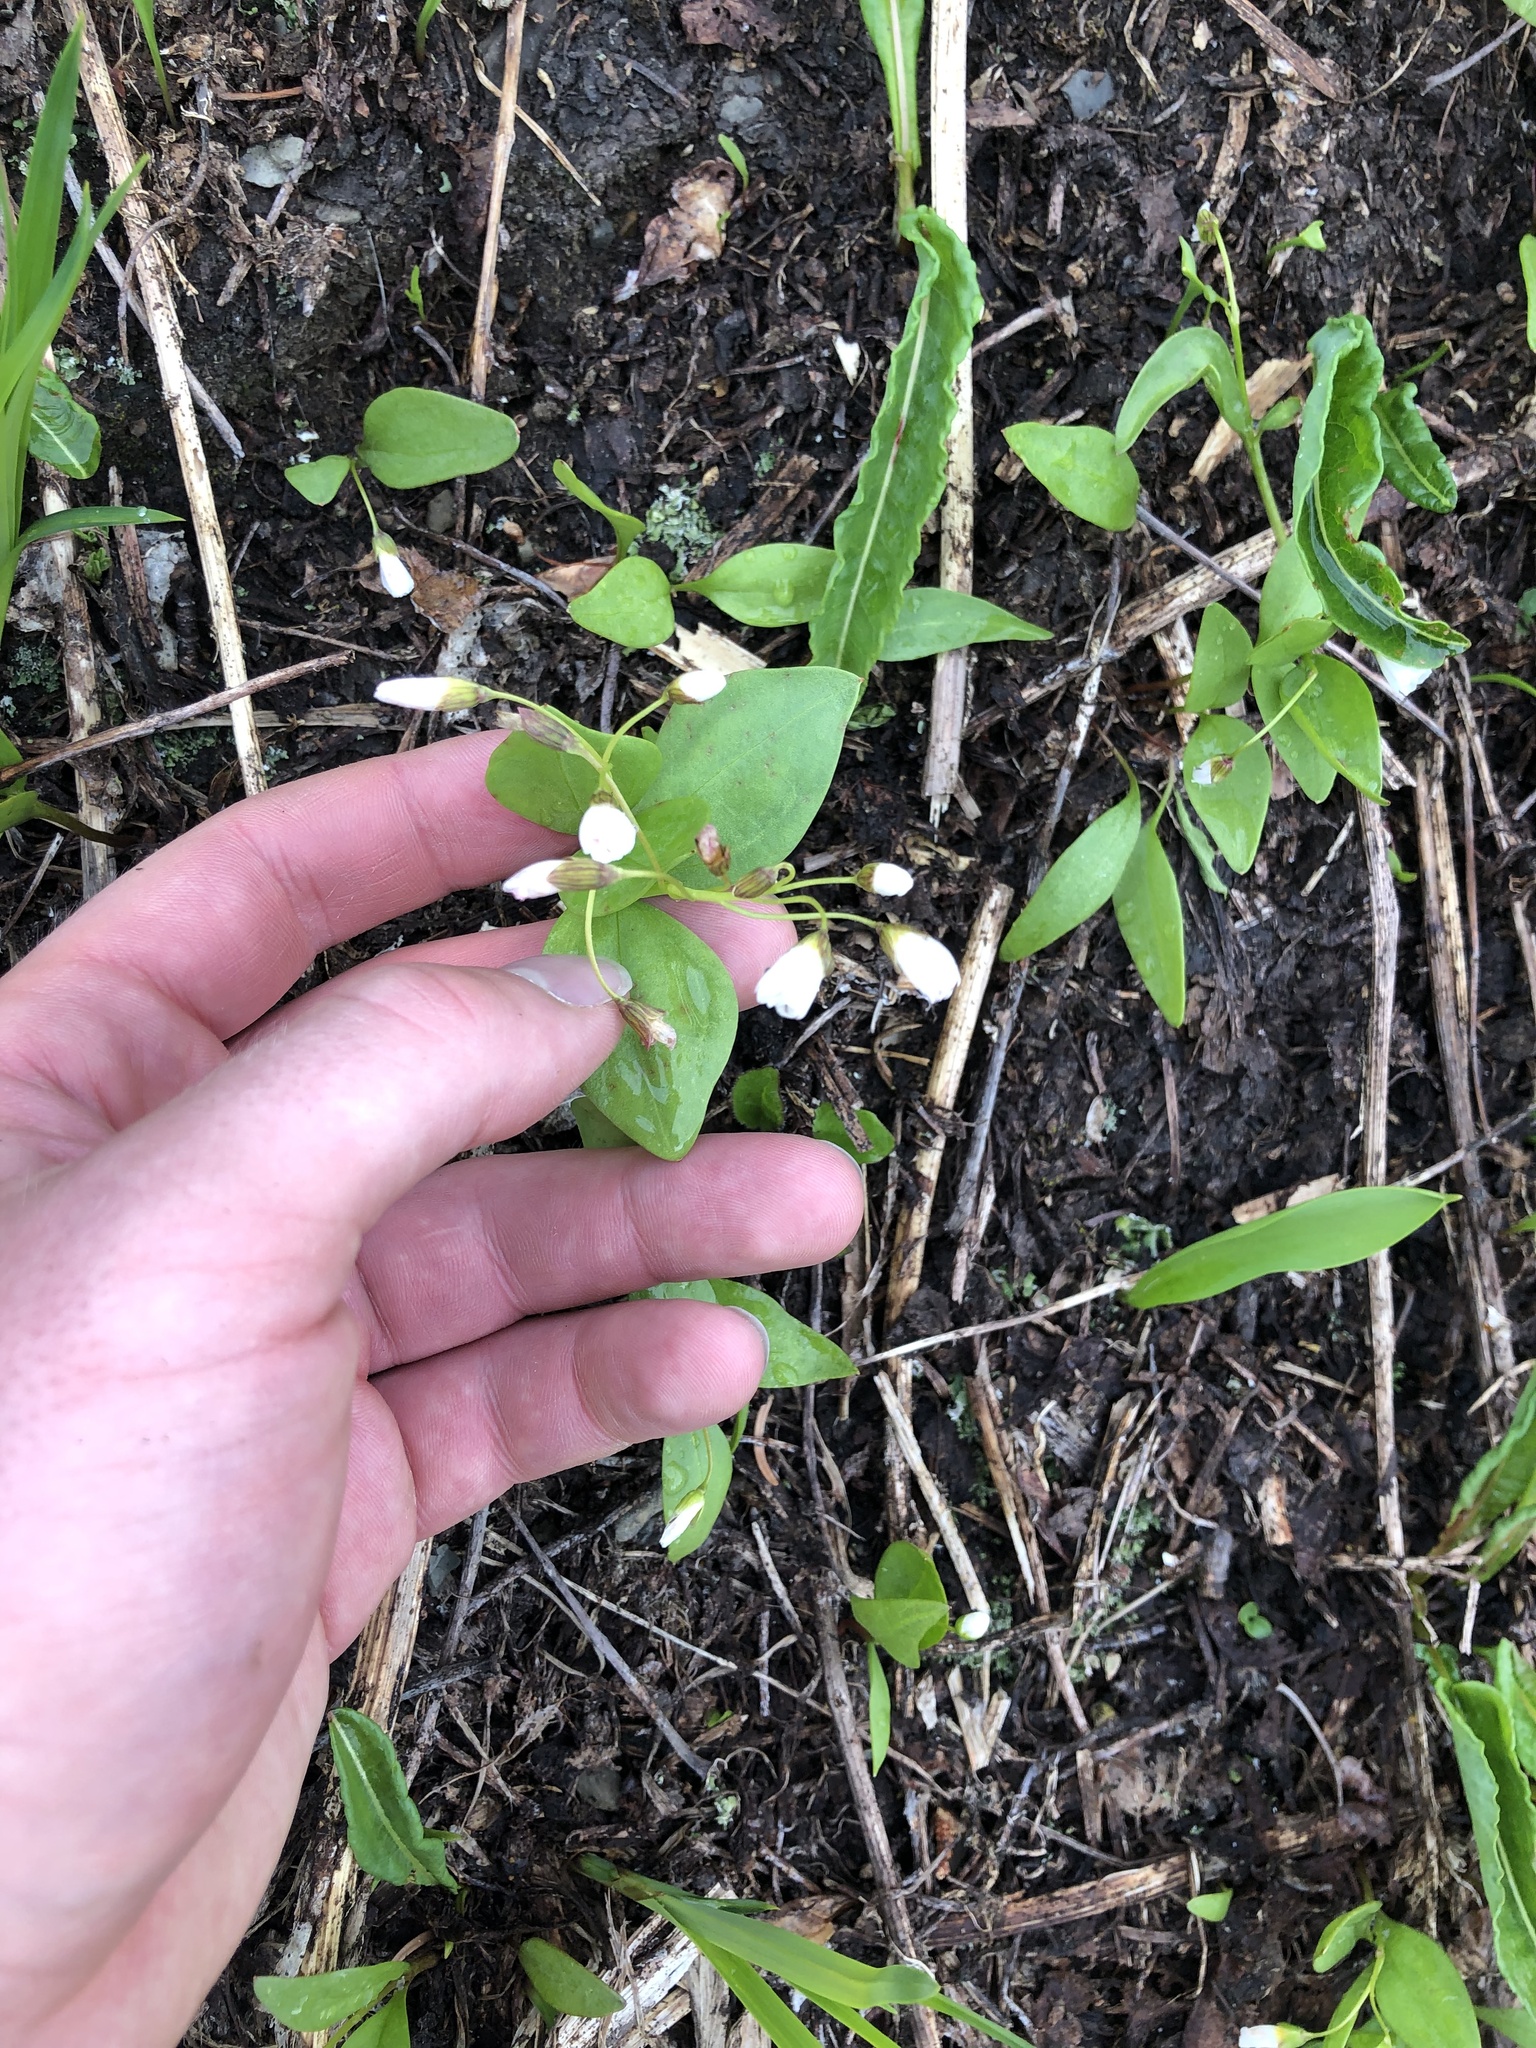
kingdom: Plantae
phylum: Tracheophyta
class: Magnoliopsida
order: Caryophyllales
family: Montiaceae
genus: Claytonia
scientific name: Claytonia lanceolata
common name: Western spring-beauty
